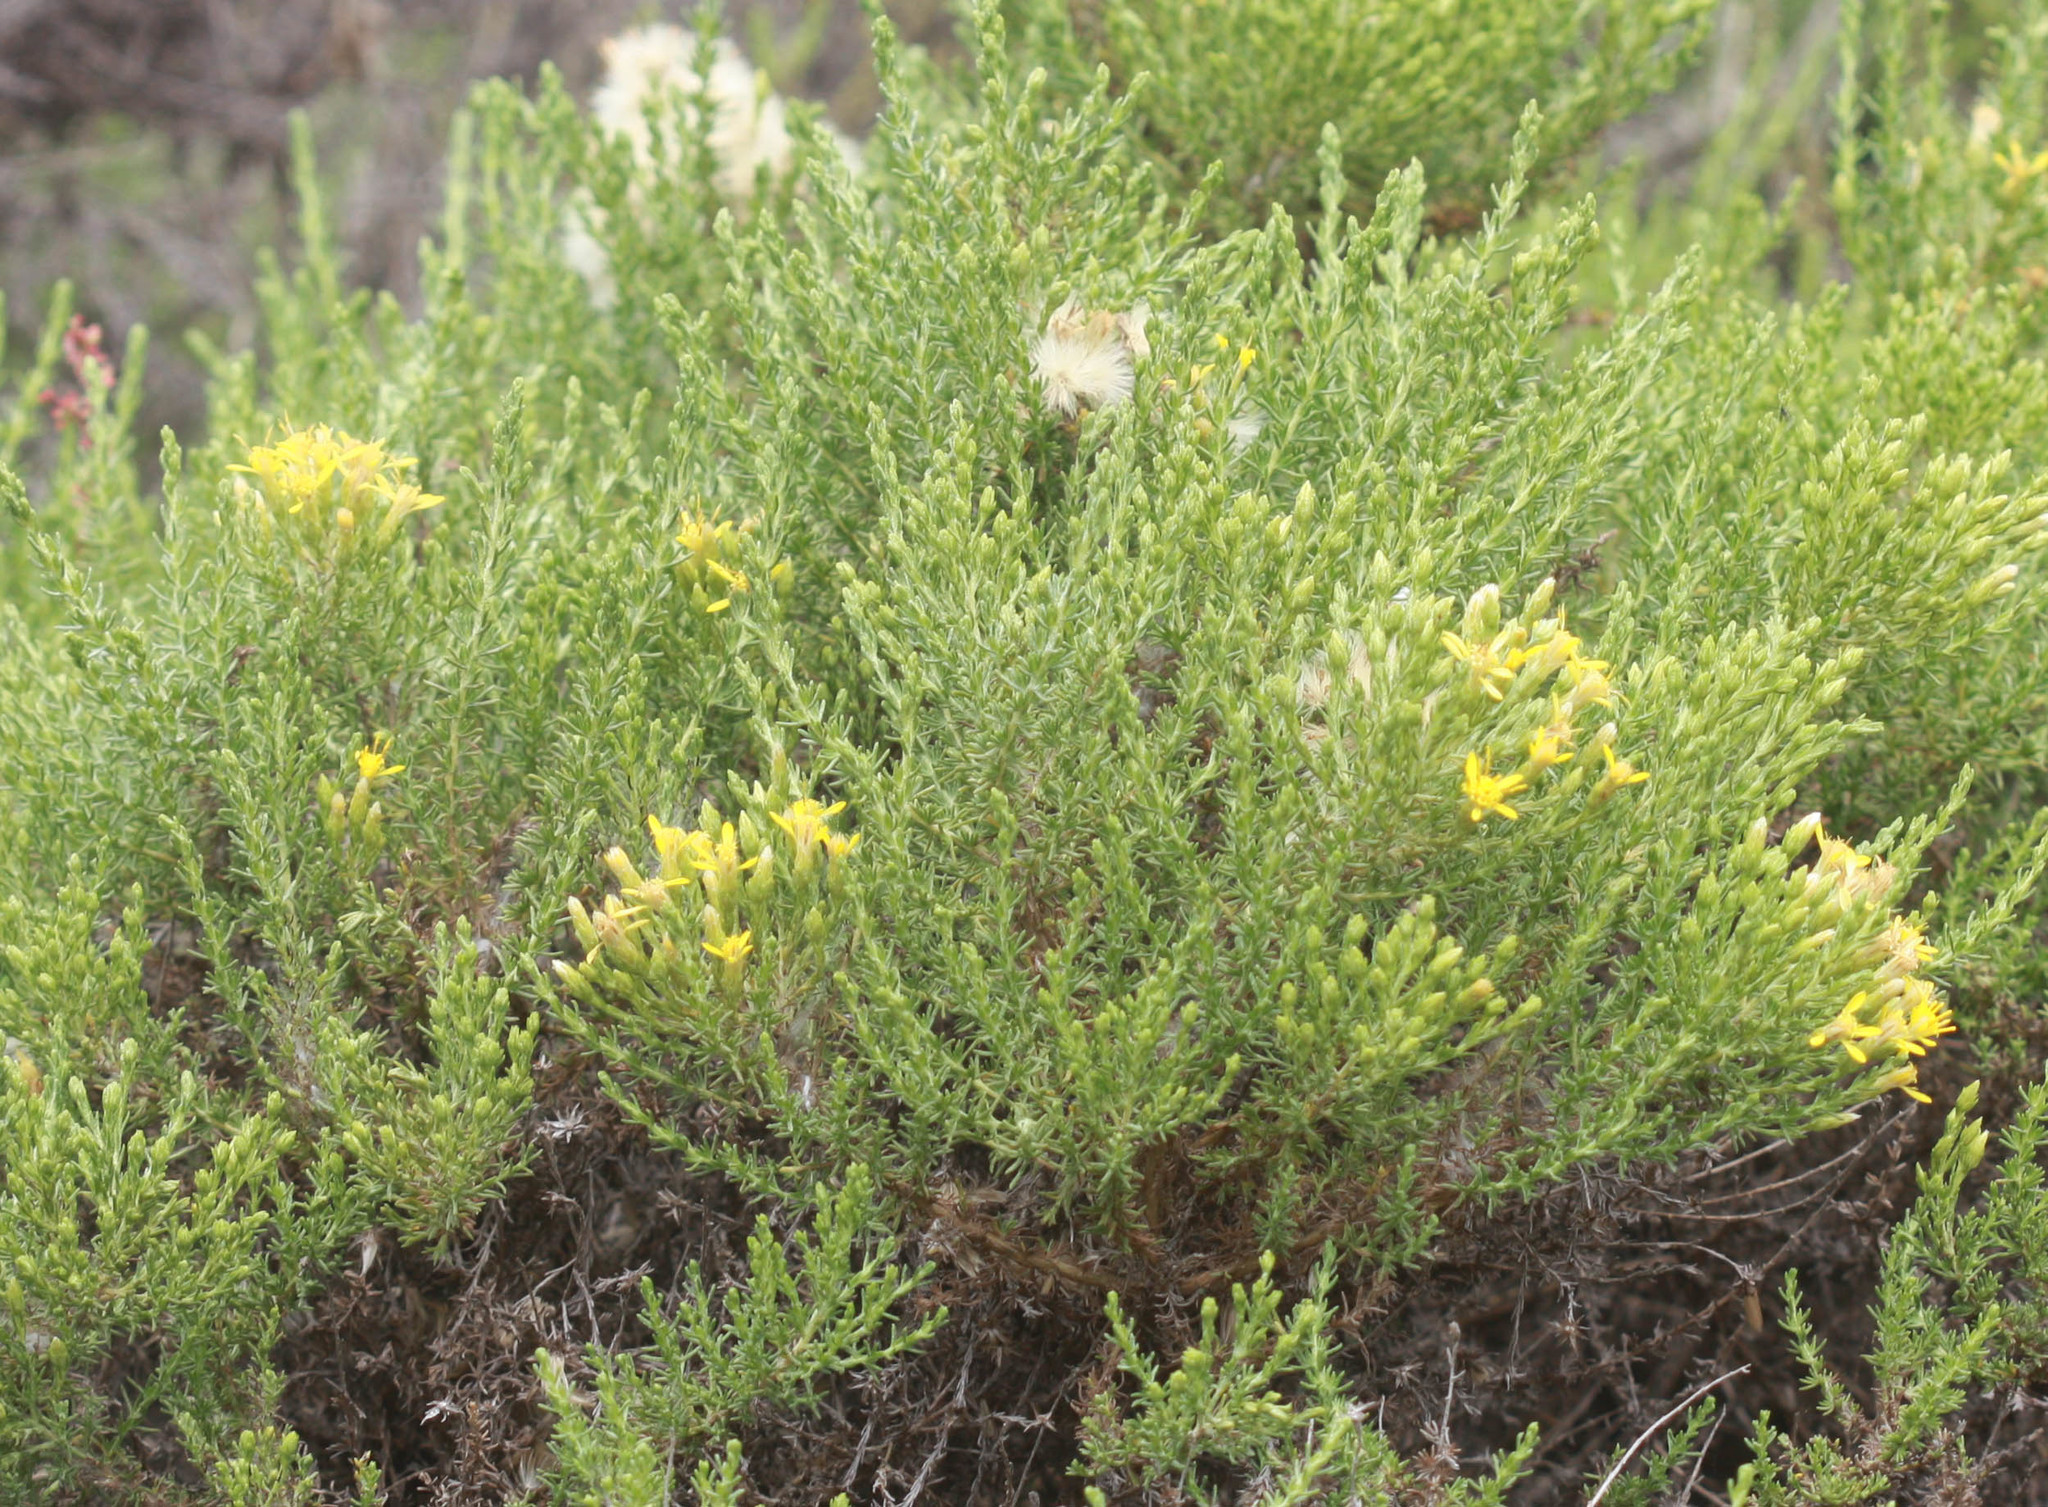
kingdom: Plantae
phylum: Tracheophyta
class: Magnoliopsida
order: Asterales
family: Asteraceae
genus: Ericameria
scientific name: Ericameria ericoides
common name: California goldenbush
